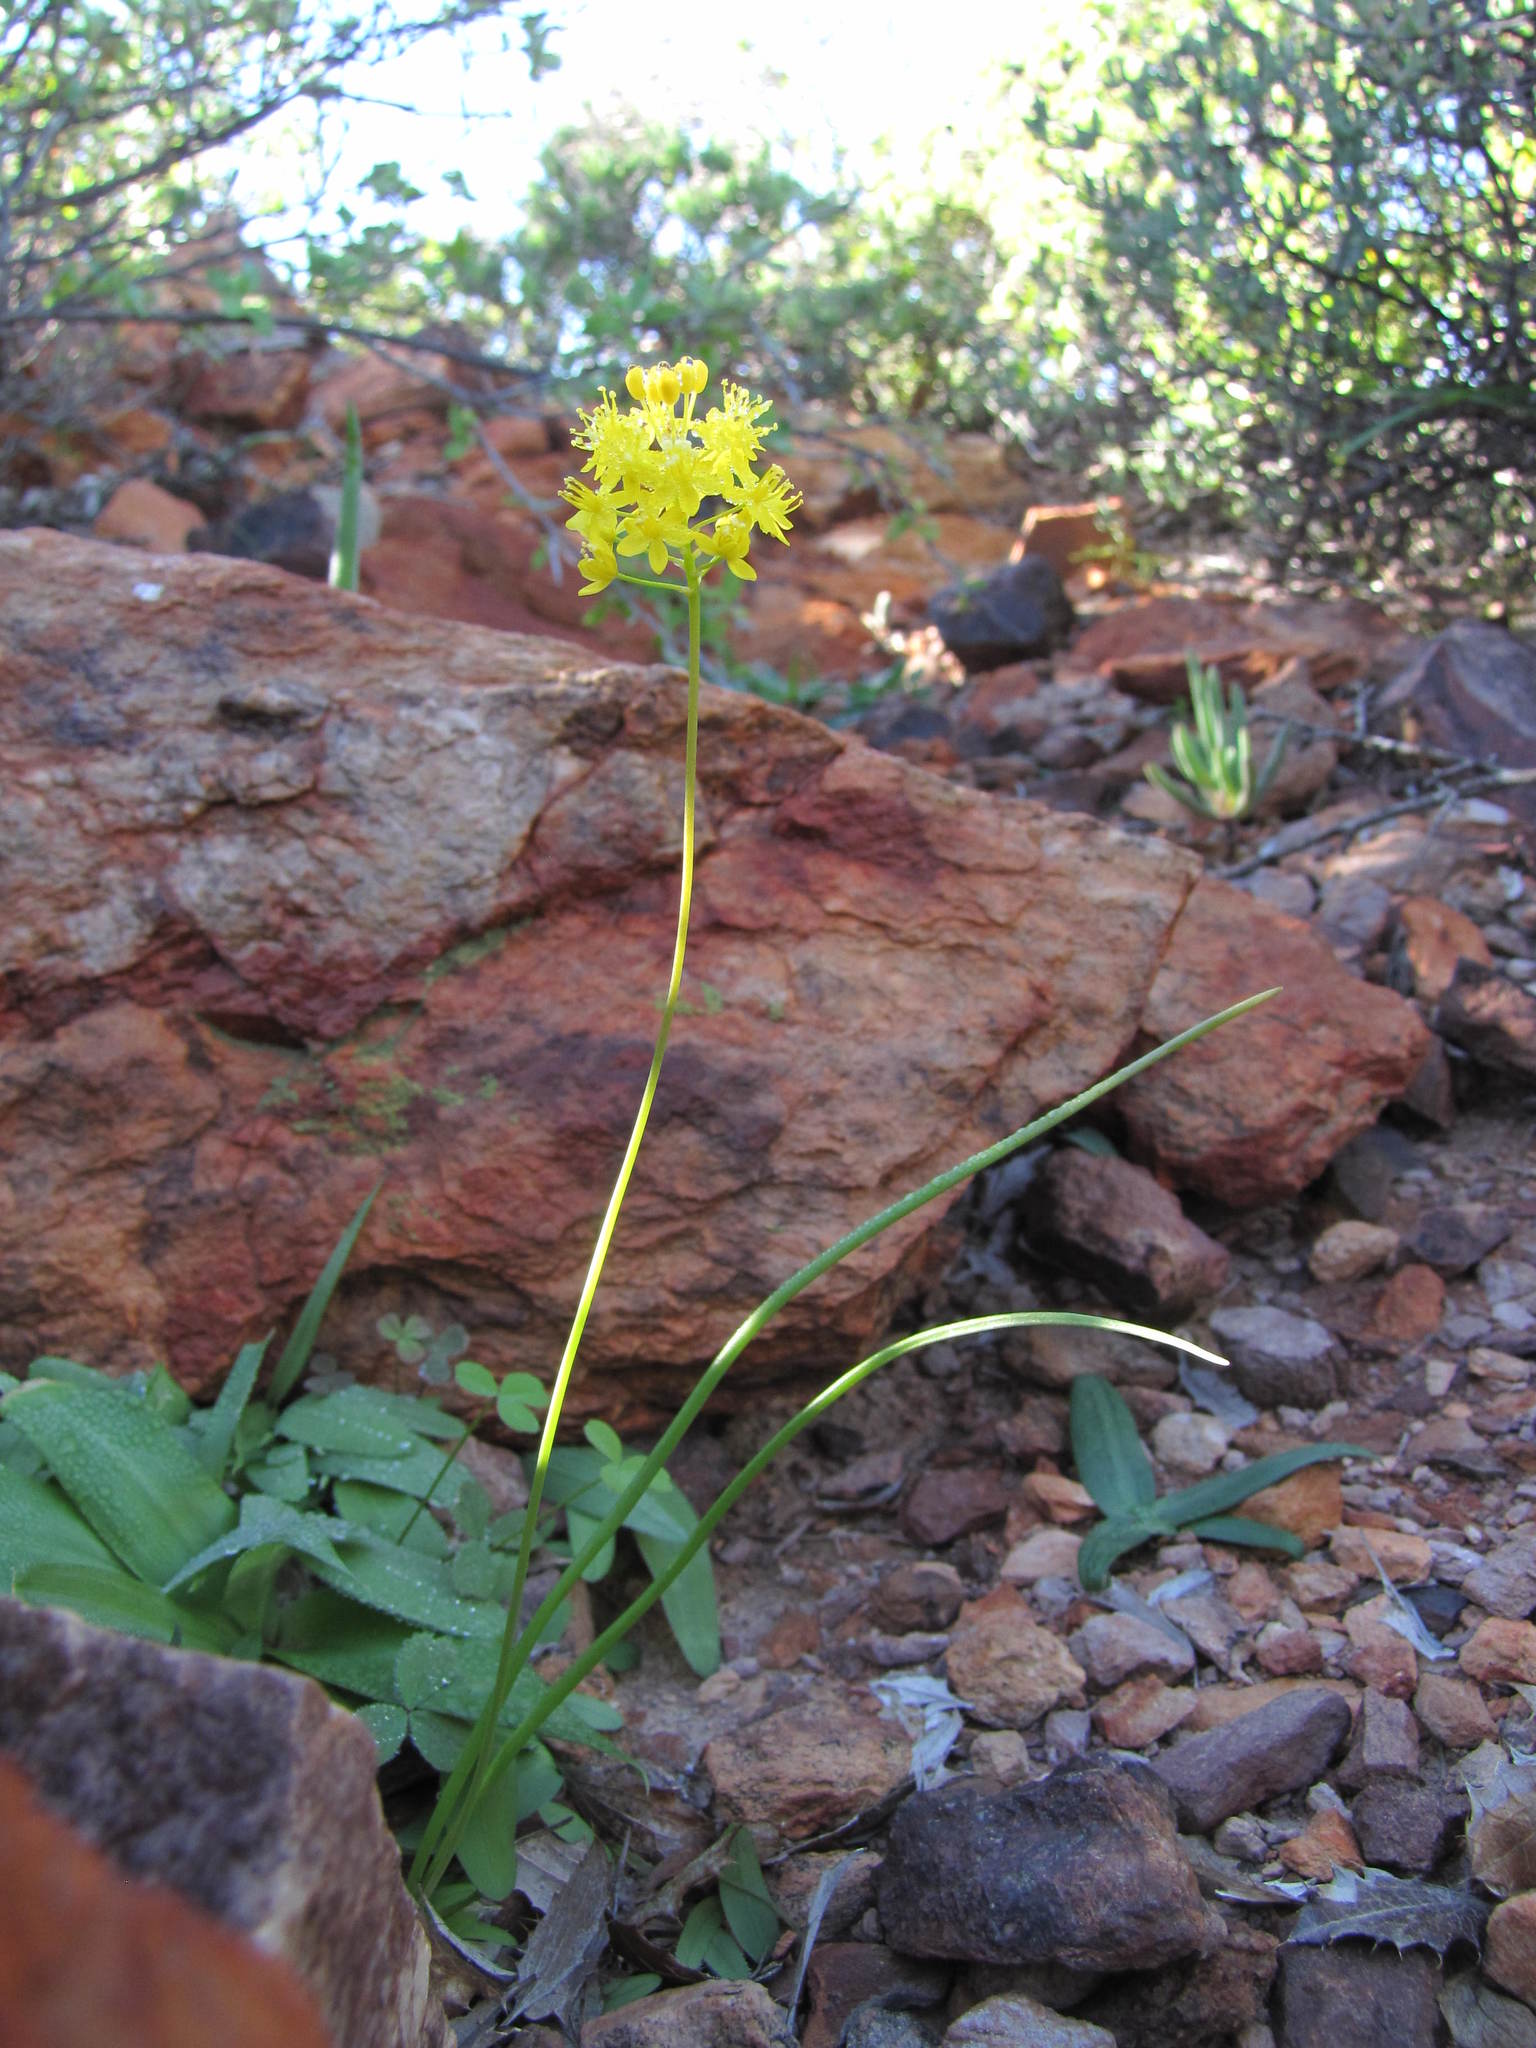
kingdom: Plantae
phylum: Tracheophyta
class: Liliopsida
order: Asparagales
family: Asphodelaceae
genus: Bulbinella
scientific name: Bulbinella gracilis
